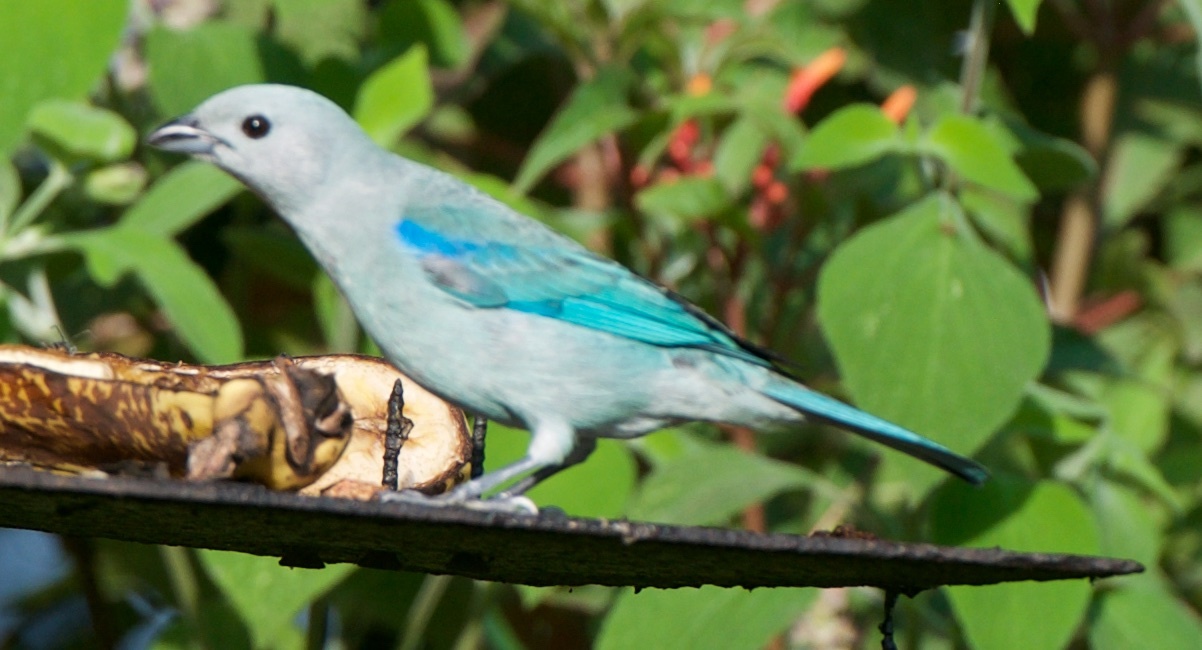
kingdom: Animalia
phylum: Chordata
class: Aves
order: Passeriformes
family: Thraupidae
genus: Thraupis
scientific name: Thraupis episcopus
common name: Blue-grey tanager
